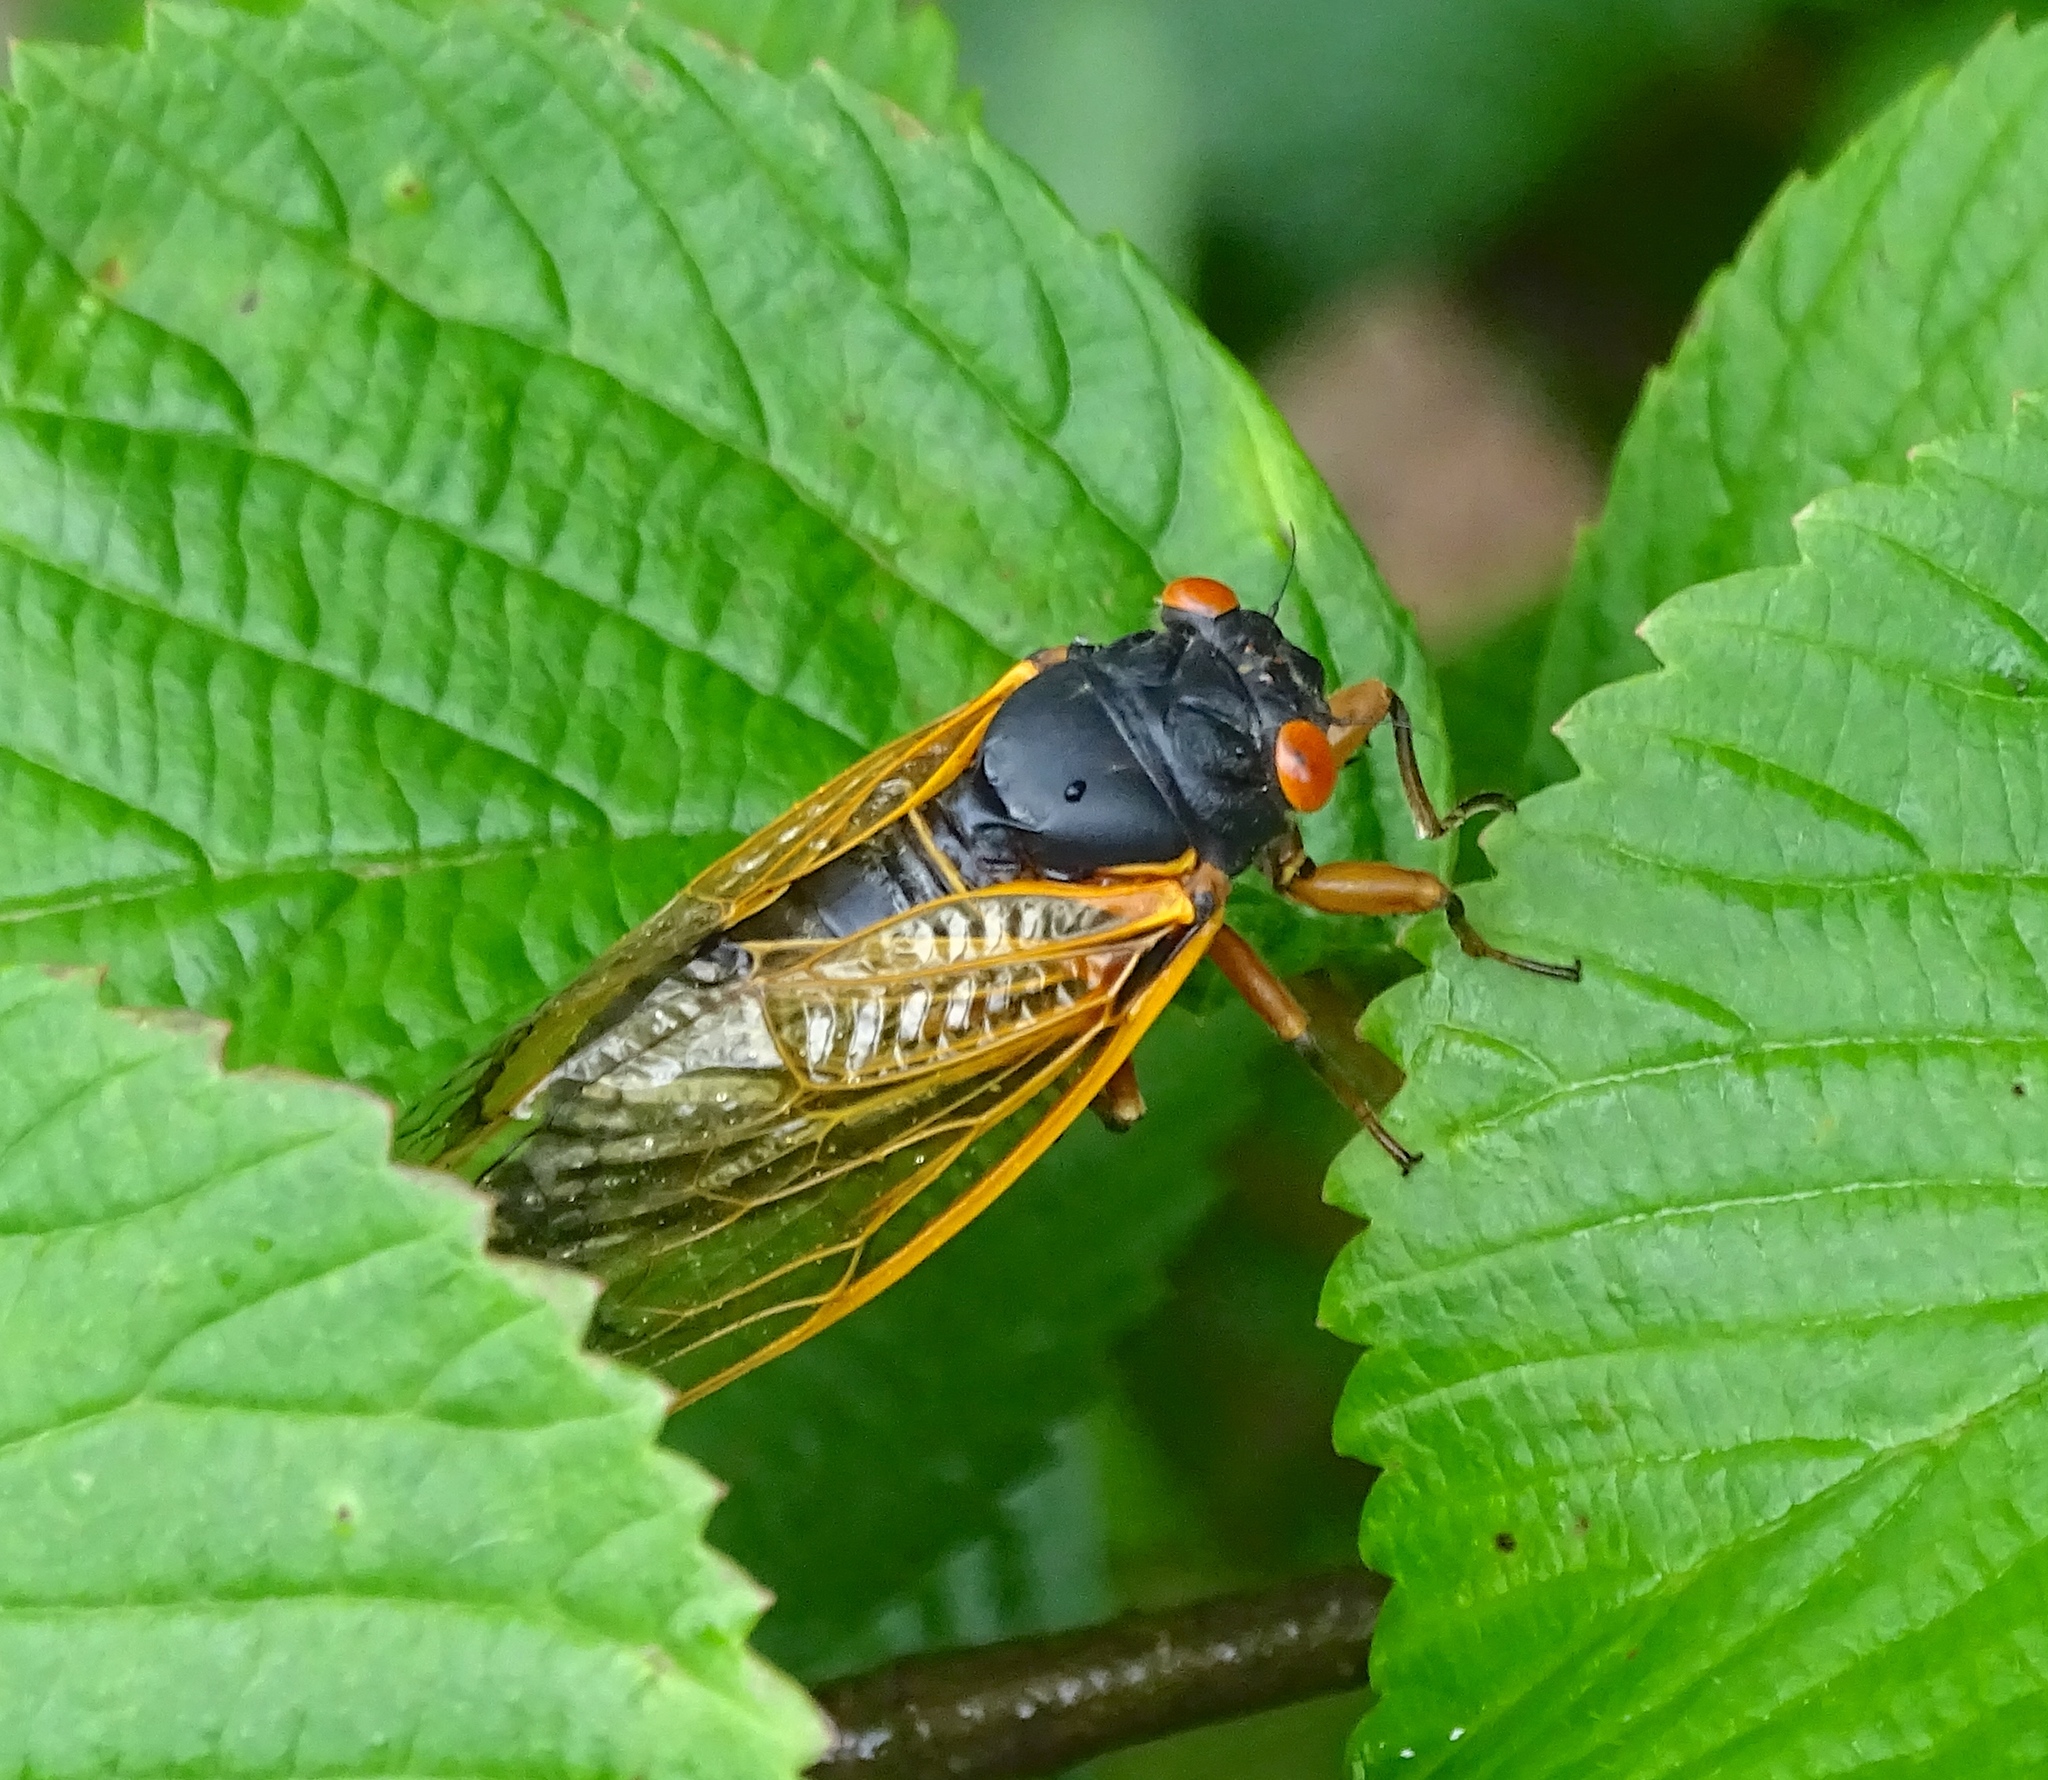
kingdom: Animalia
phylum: Arthropoda
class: Insecta
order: Hemiptera
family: Cicadidae
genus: Magicicada
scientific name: Magicicada
